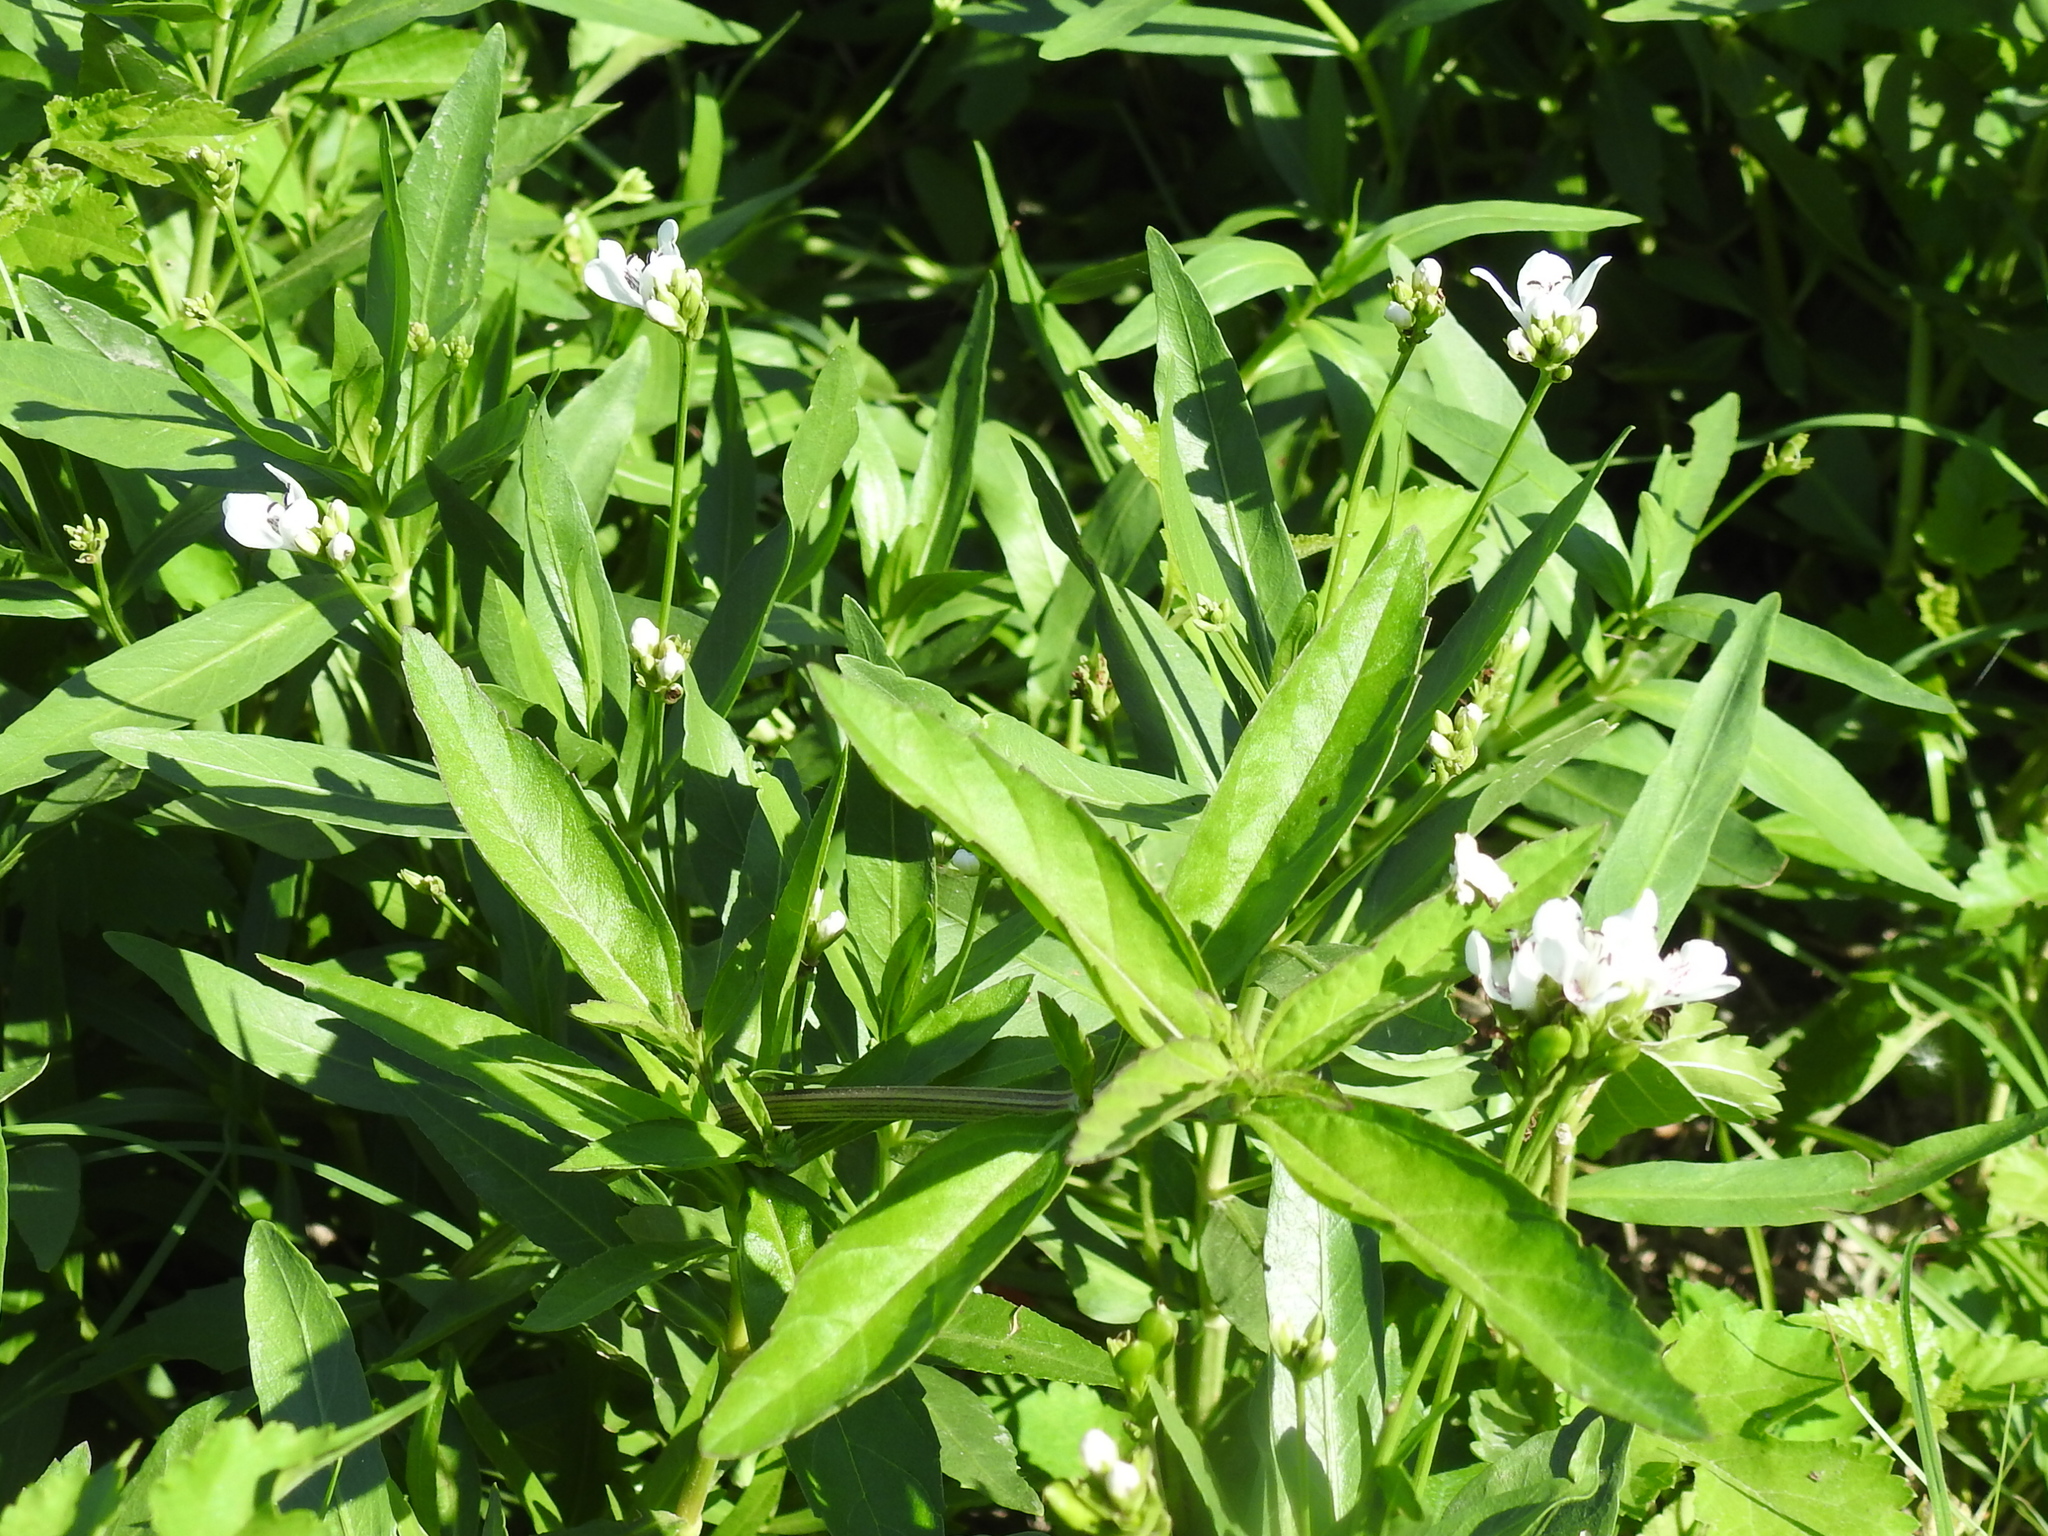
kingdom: Plantae
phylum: Tracheophyta
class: Magnoliopsida
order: Lamiales
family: Acanthaceae
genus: Dianthera
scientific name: Dianthera americana
